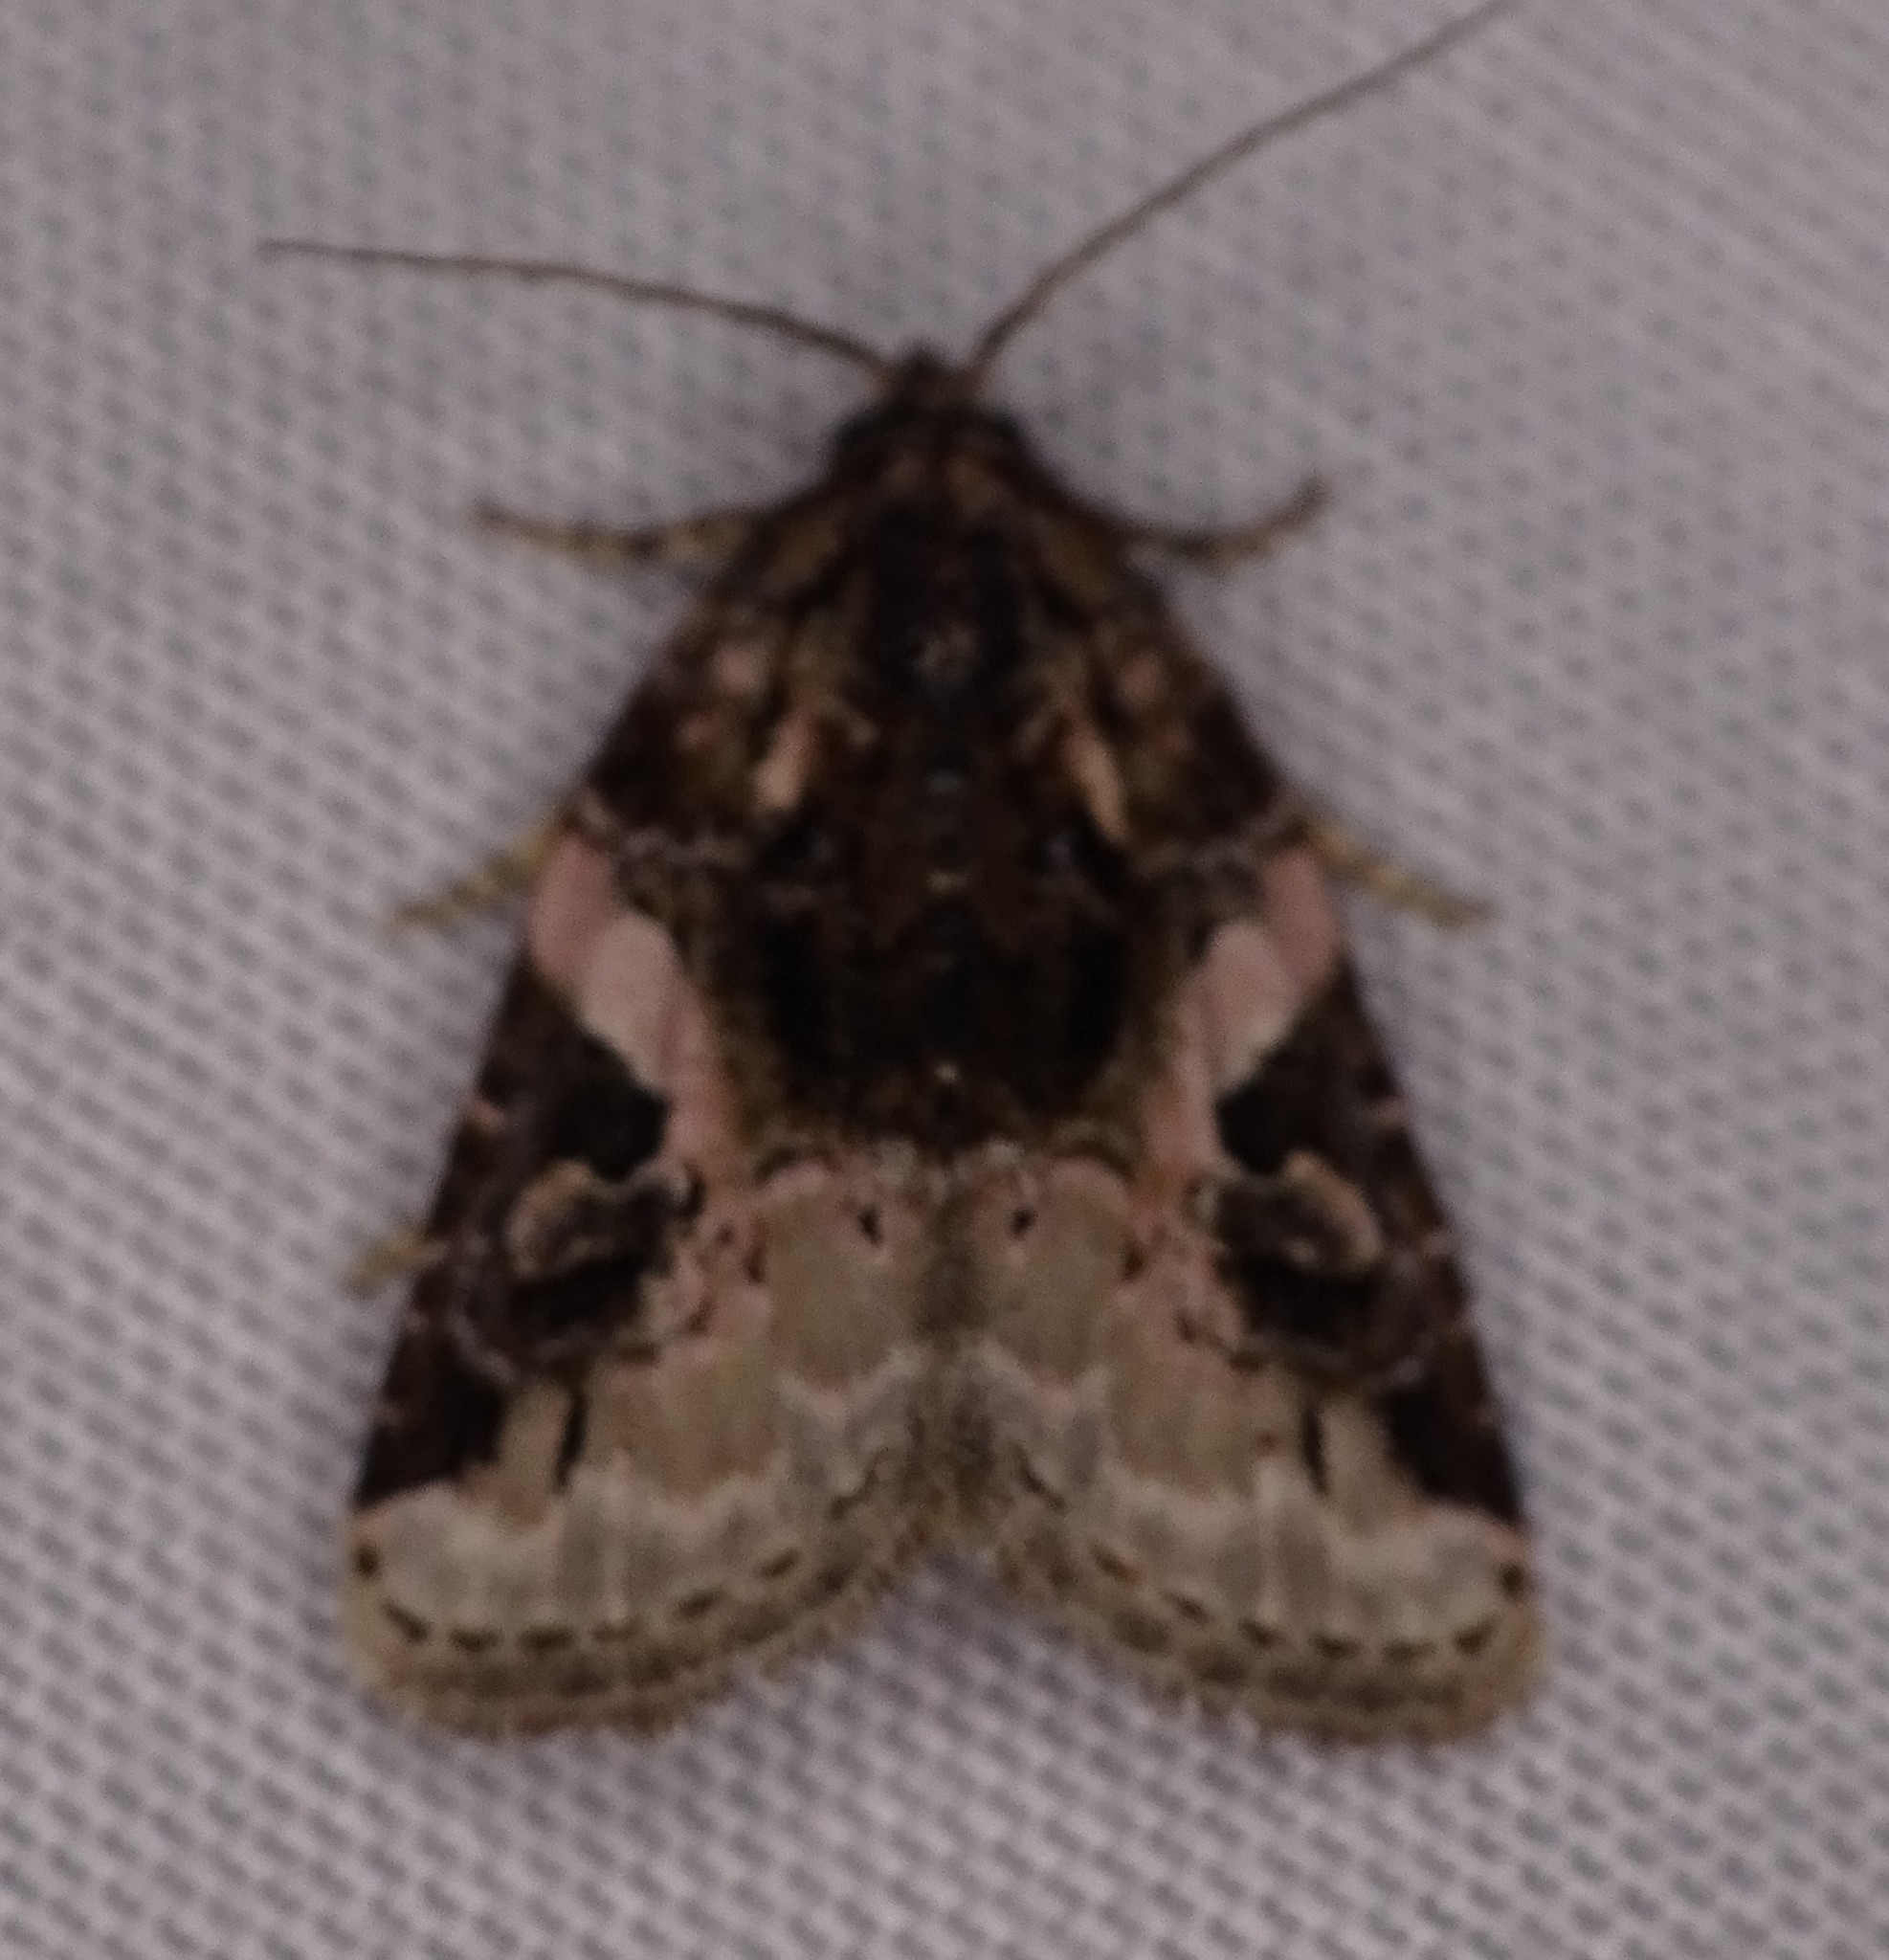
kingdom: Animalia
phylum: Arthropoda
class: Insecta
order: Lepidoptera
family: Noctuidae
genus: Pseudeustrotia
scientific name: Pseudeustrotia carneola
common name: Pink-barred lithacodia moth
